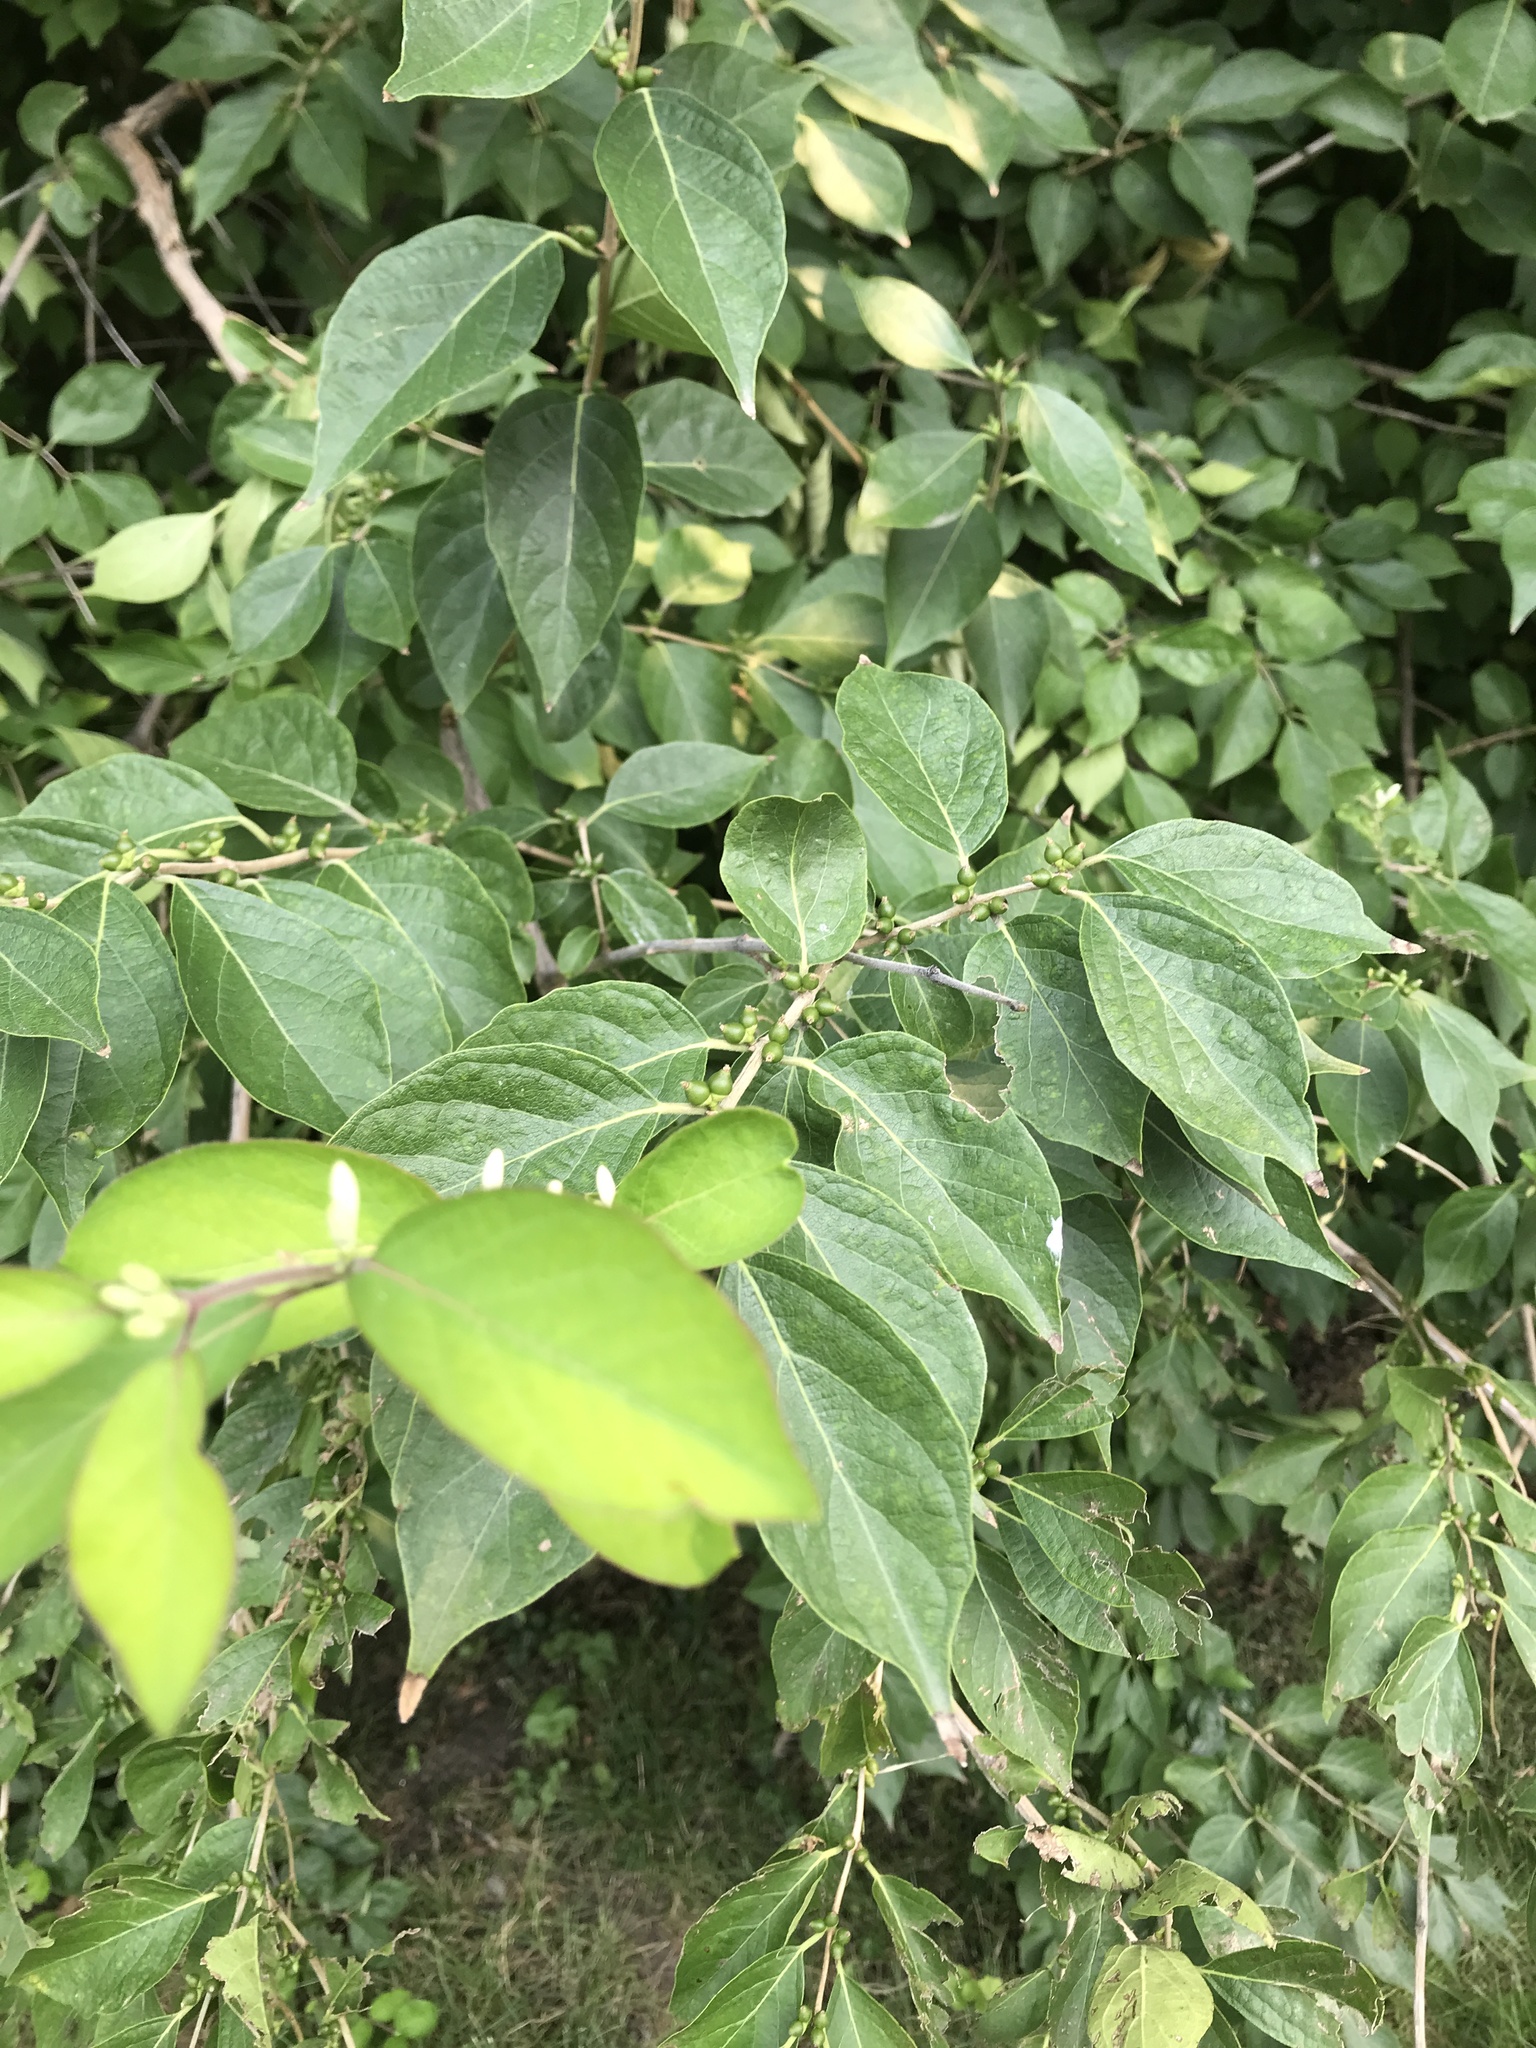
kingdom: Plantae
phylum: Tracheophyta
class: Magnoliopsida
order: Dipsacales
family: Caprifoliaceae
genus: Lonicera
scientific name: Lonicera maackii
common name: Amur honeysuckle
